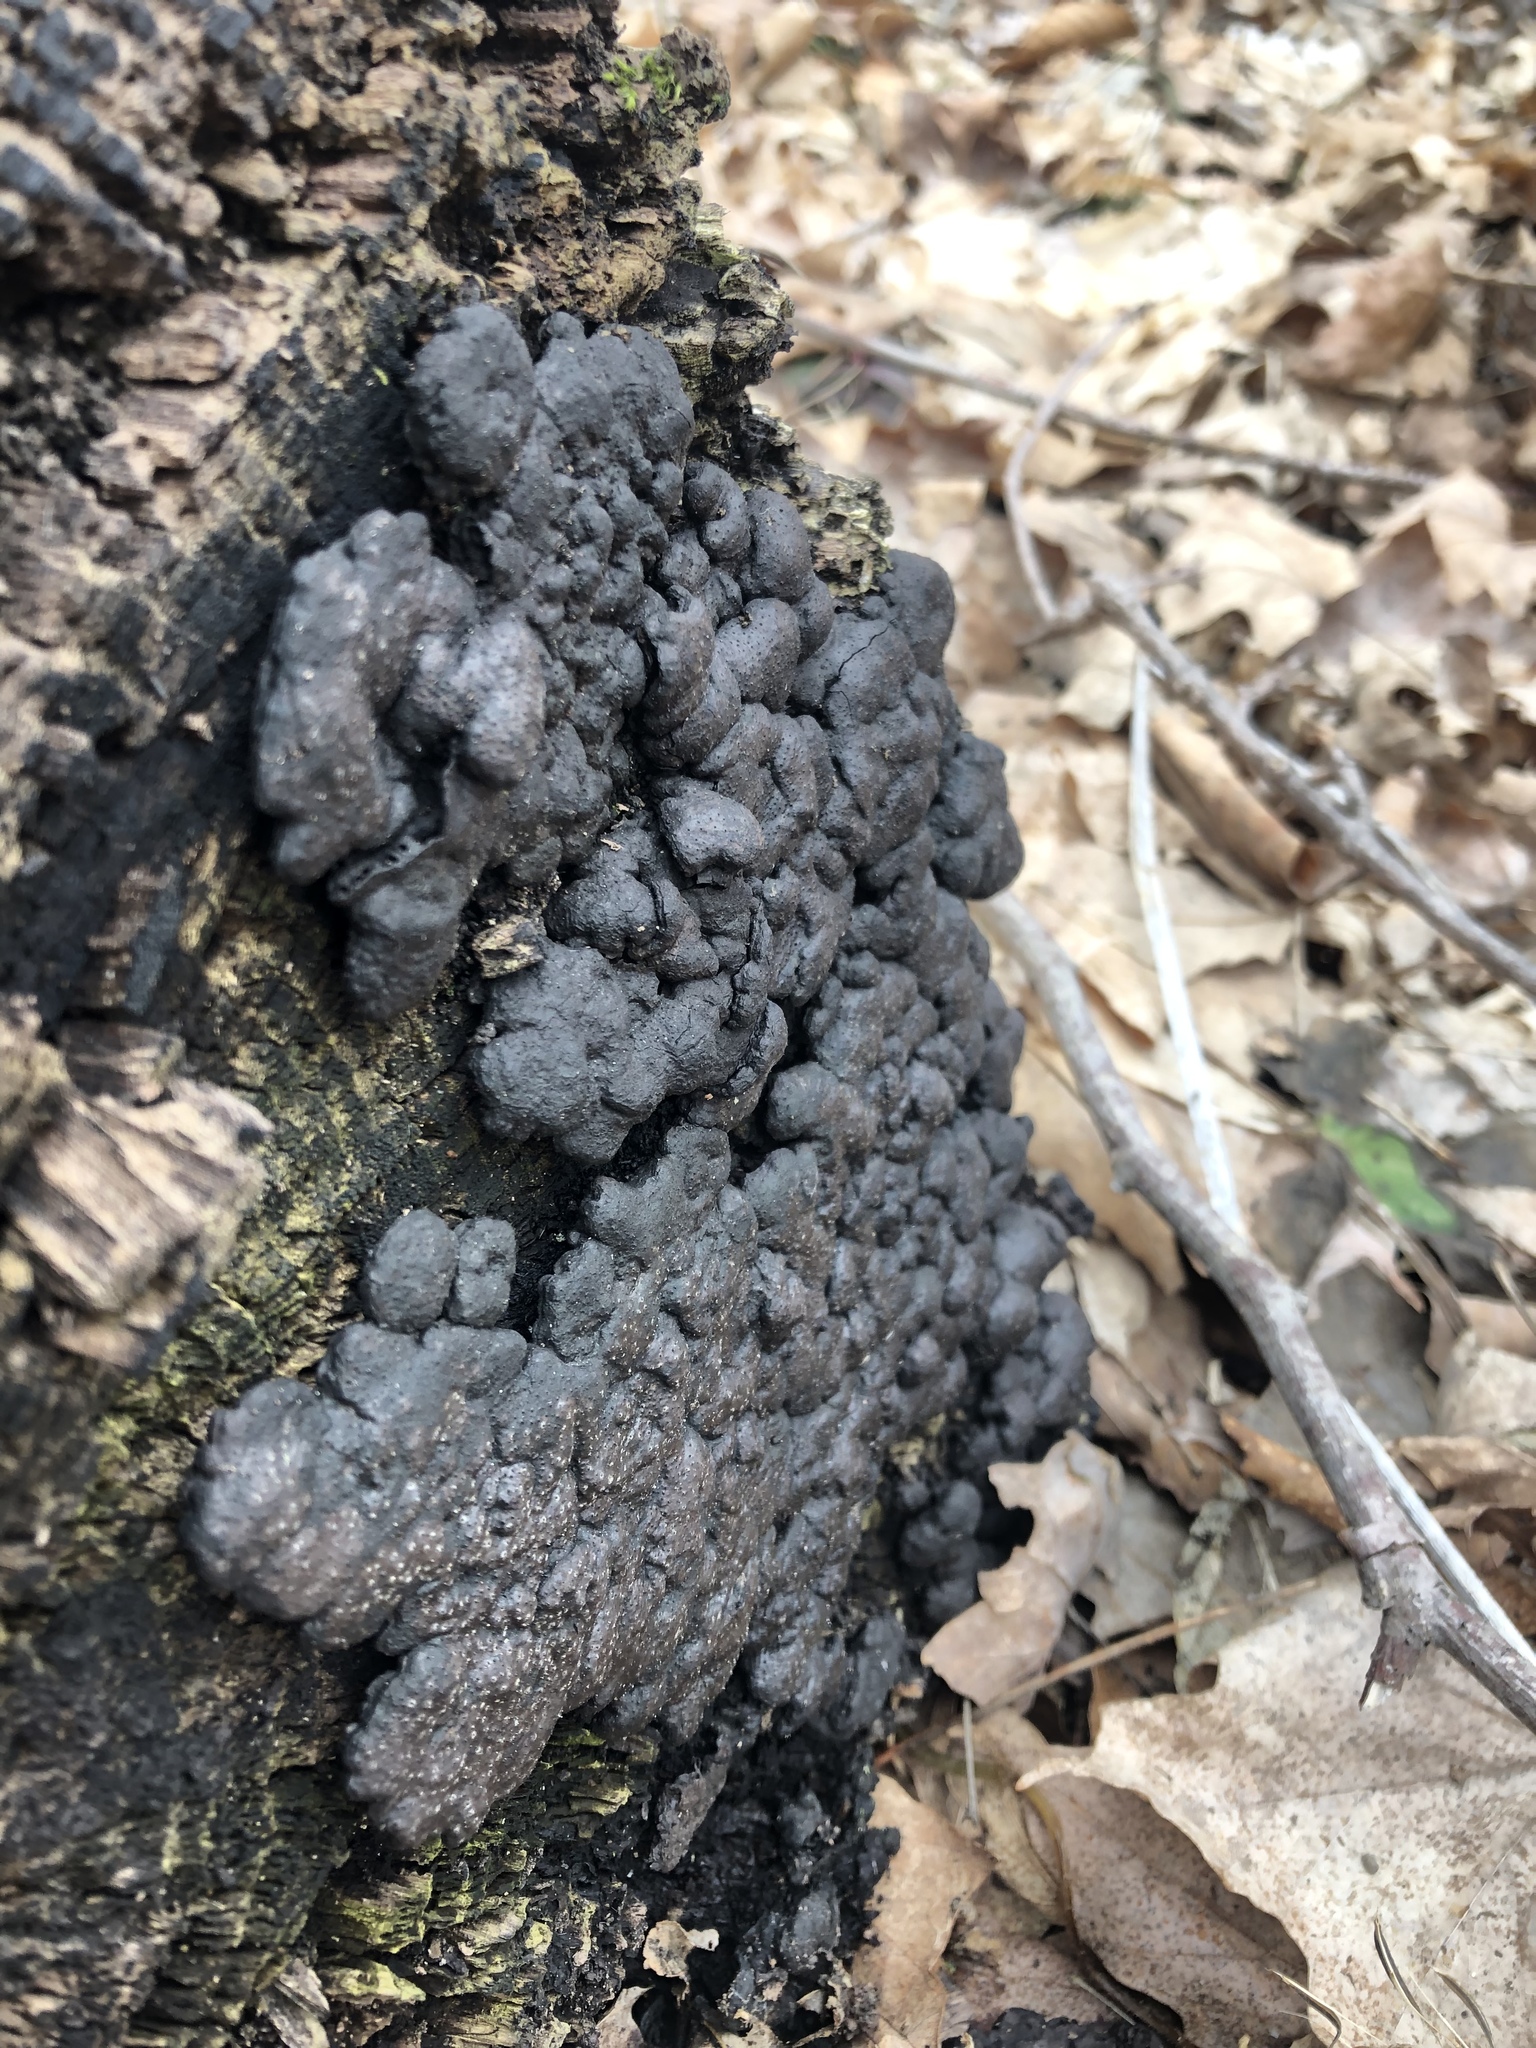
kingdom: Fungi
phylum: Ascomycota
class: Sordariomycetes
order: Xylariales
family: Xylariaceae
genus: Kretzschmaria
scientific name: Kretzschmaria deusta
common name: Brittle cinder
